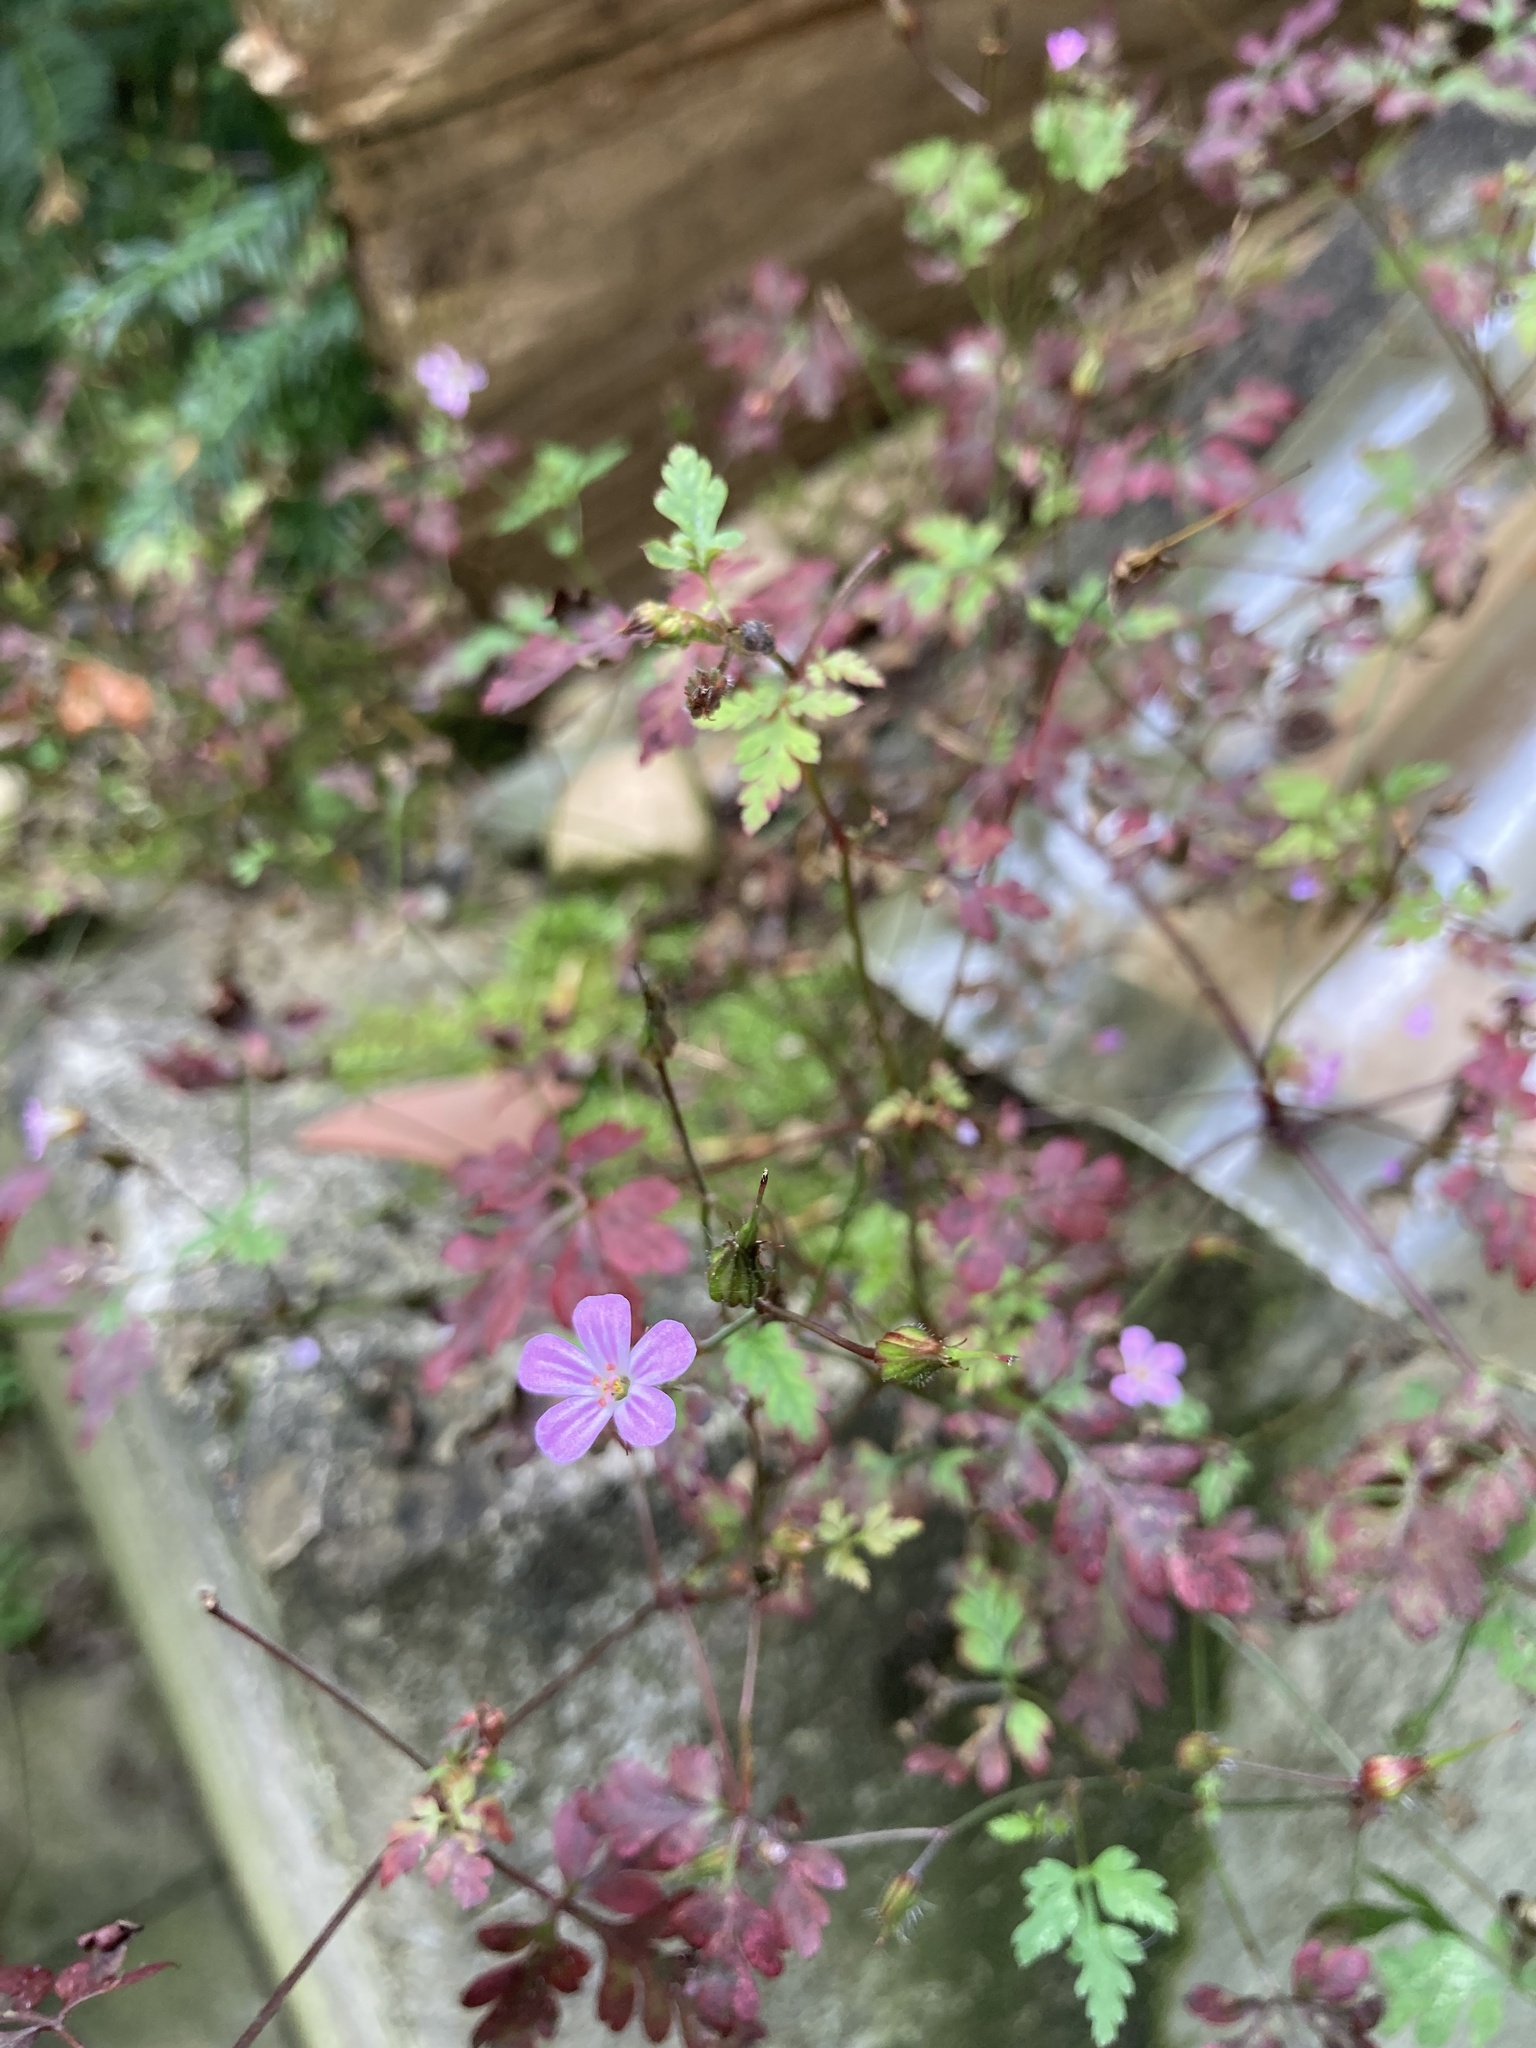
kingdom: Plantae
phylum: Tracheophyta
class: Magnoliopsida
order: Geraniales
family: Geraniaceae
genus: Geranium
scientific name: Geranium robertianum
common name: Herb-robert
